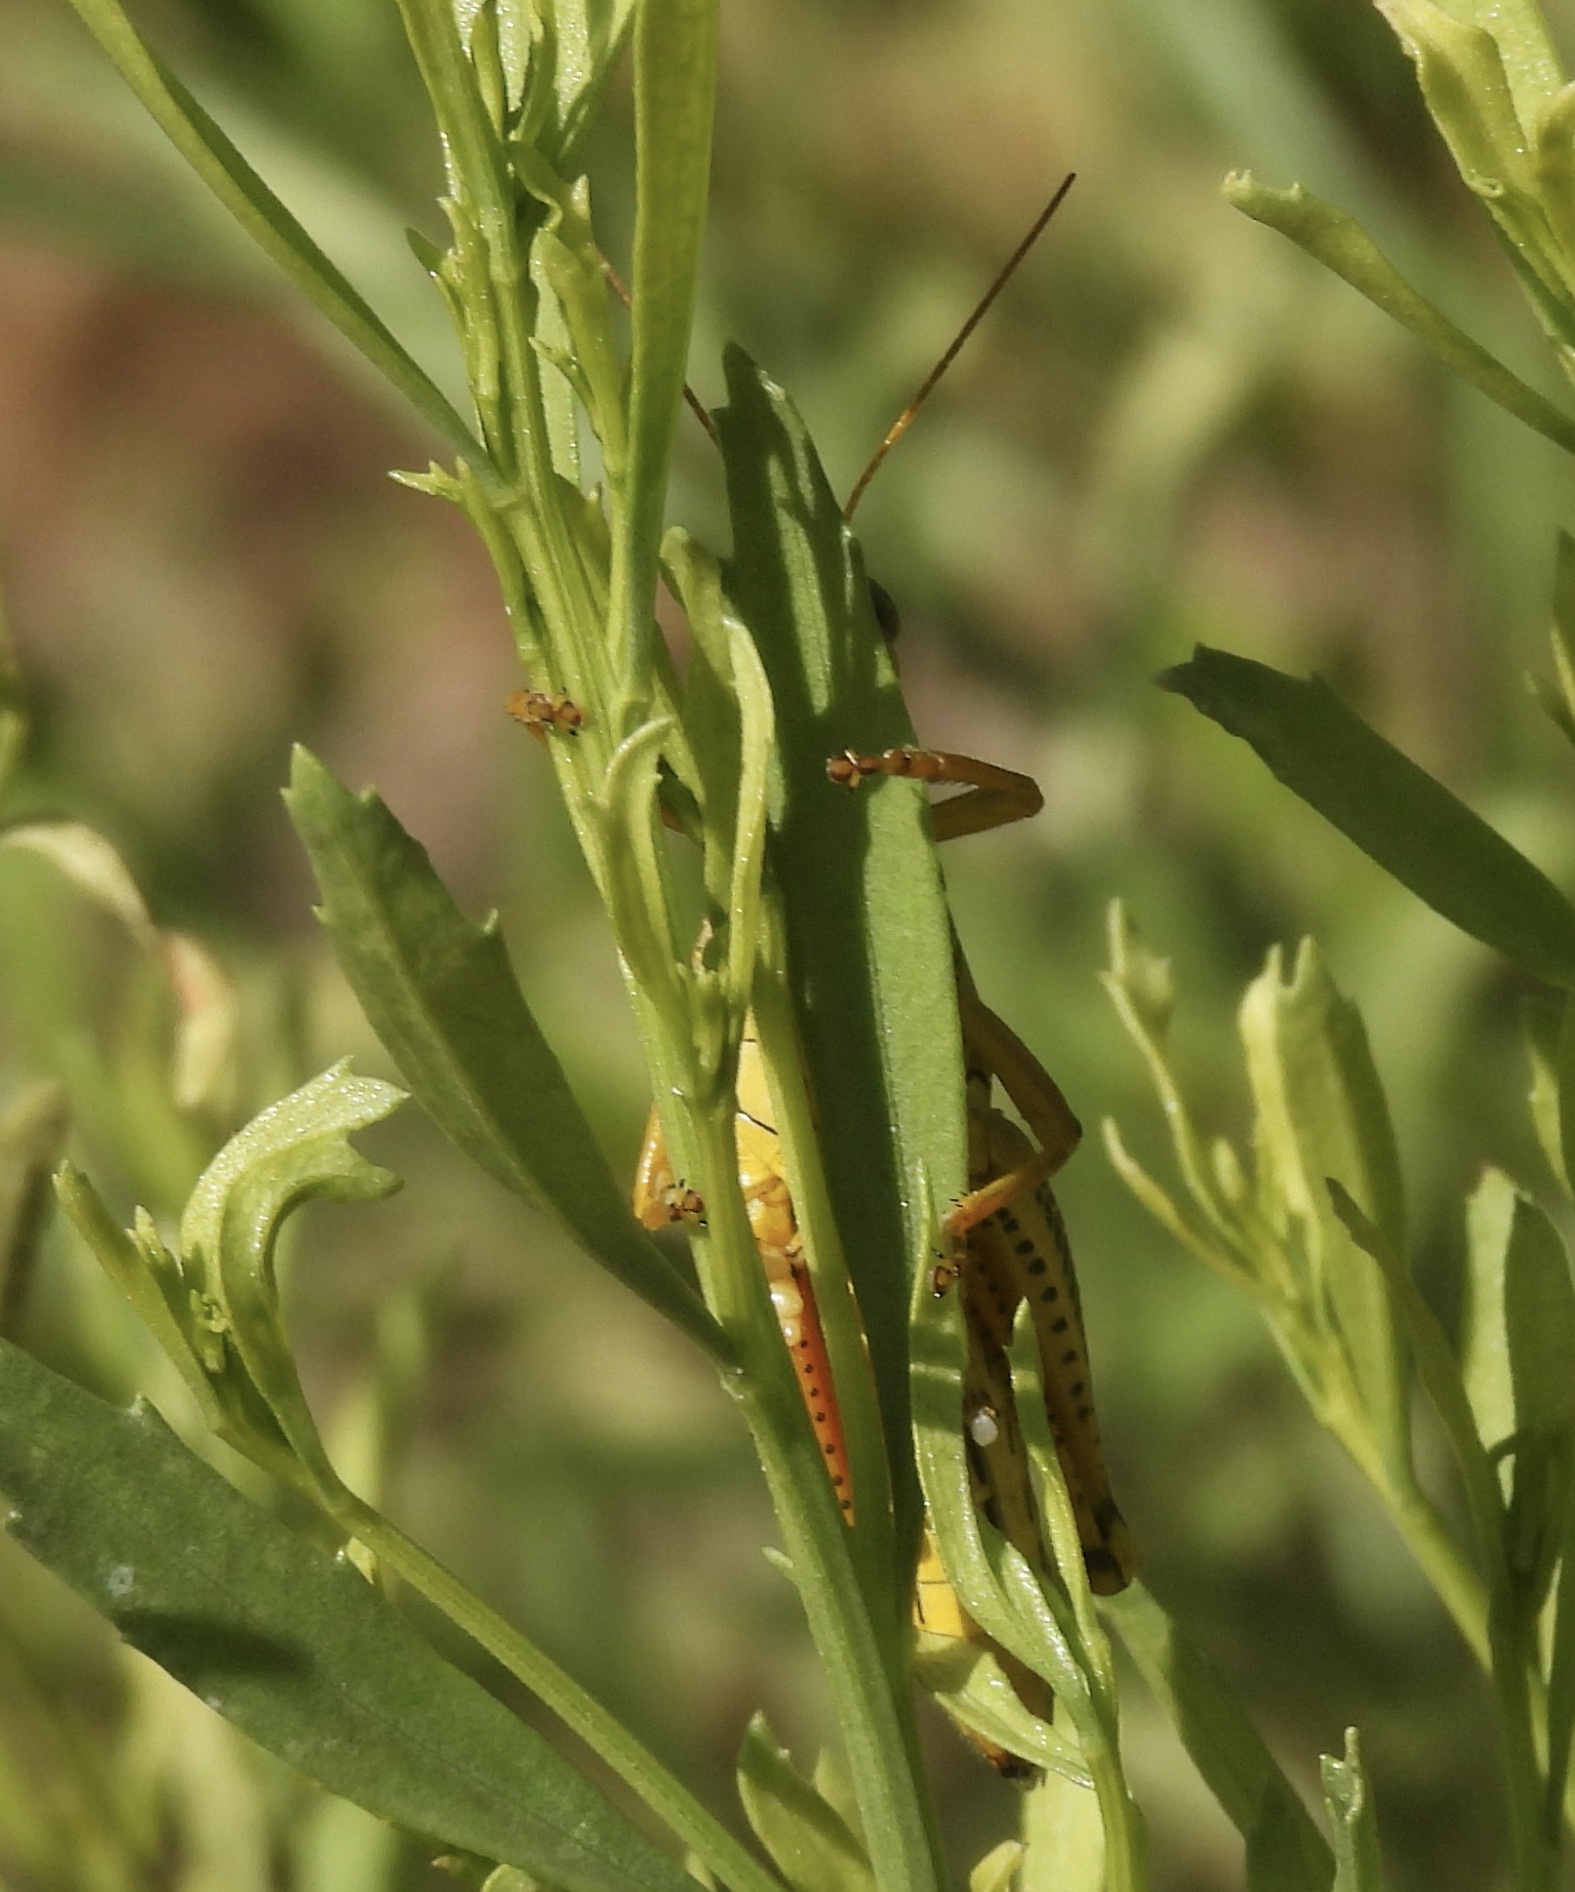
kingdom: Animalia
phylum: Arthropoda
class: Insecta
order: Orthoptera
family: Acrididae
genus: Melanoplus
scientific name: Melanoplus differentialis
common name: Differential grasshopper
